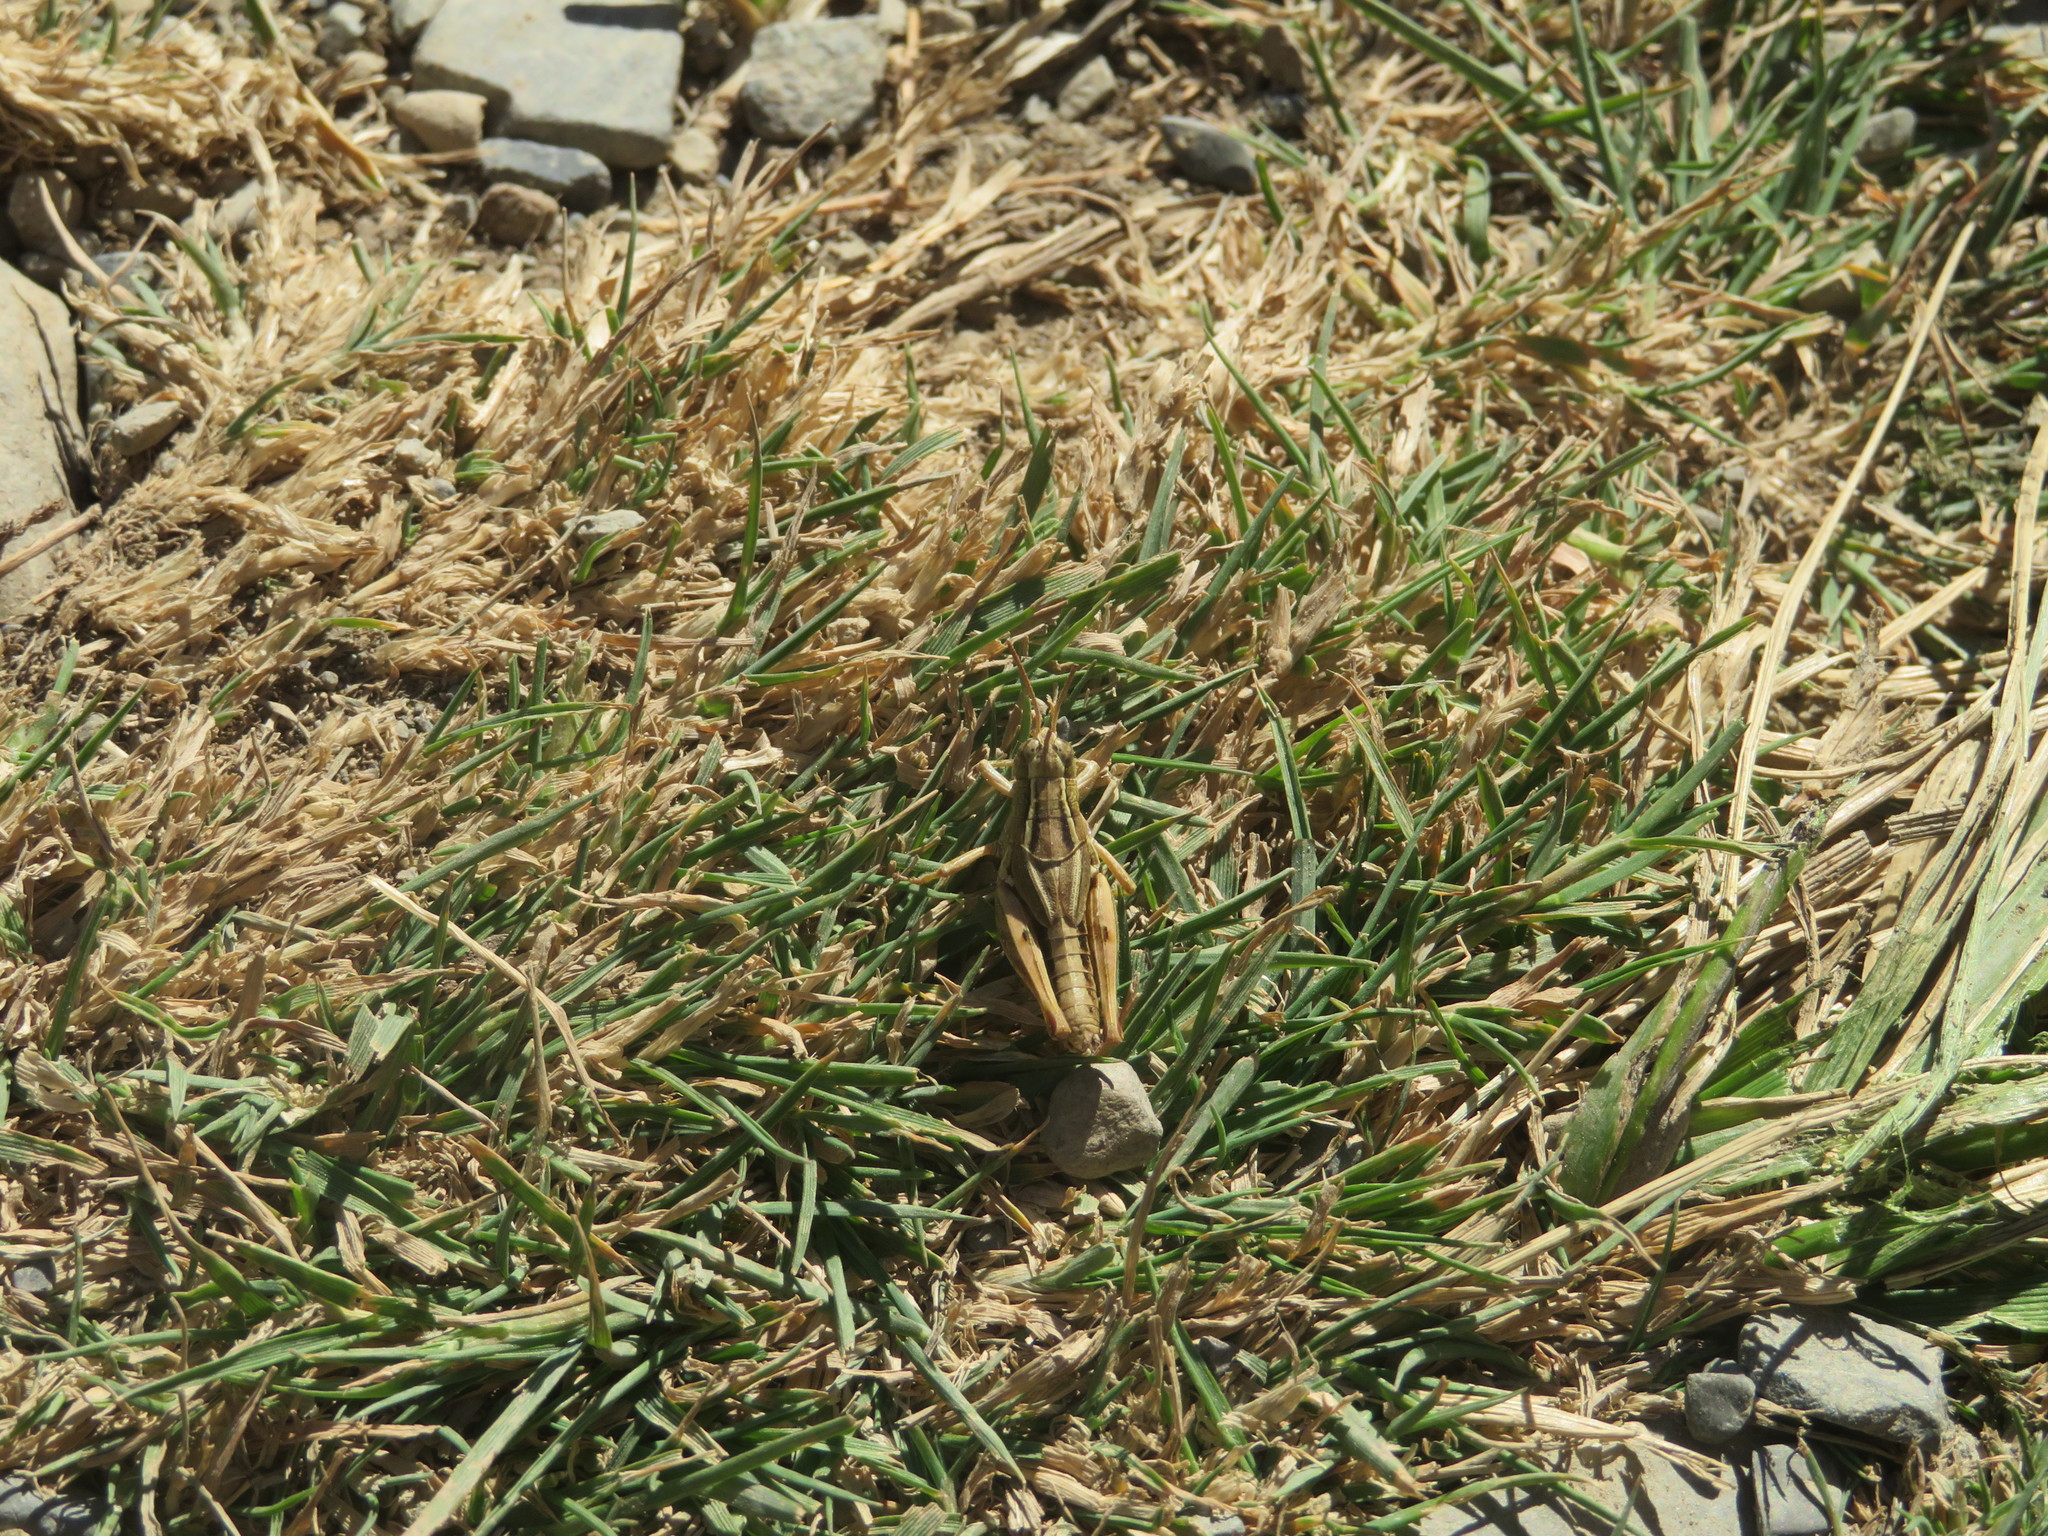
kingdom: Animalia
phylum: Arthropoda
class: Insecta
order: Orthoptera
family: Acrididae
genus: Phaulacridium
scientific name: Phaulacridium marginale
